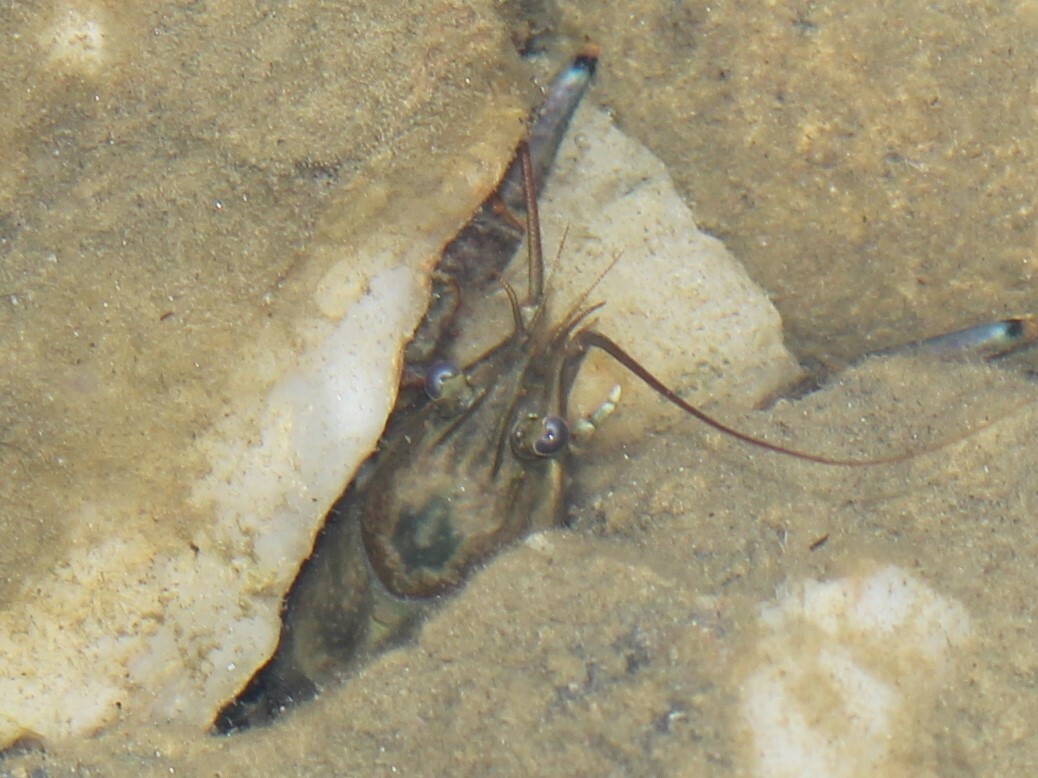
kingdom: Animalia
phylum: Arthropoda
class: Malacostraca
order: Decapoda
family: Cambaridae
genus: Faxonius
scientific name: Faxonius rusticus
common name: Rusty crayfish
